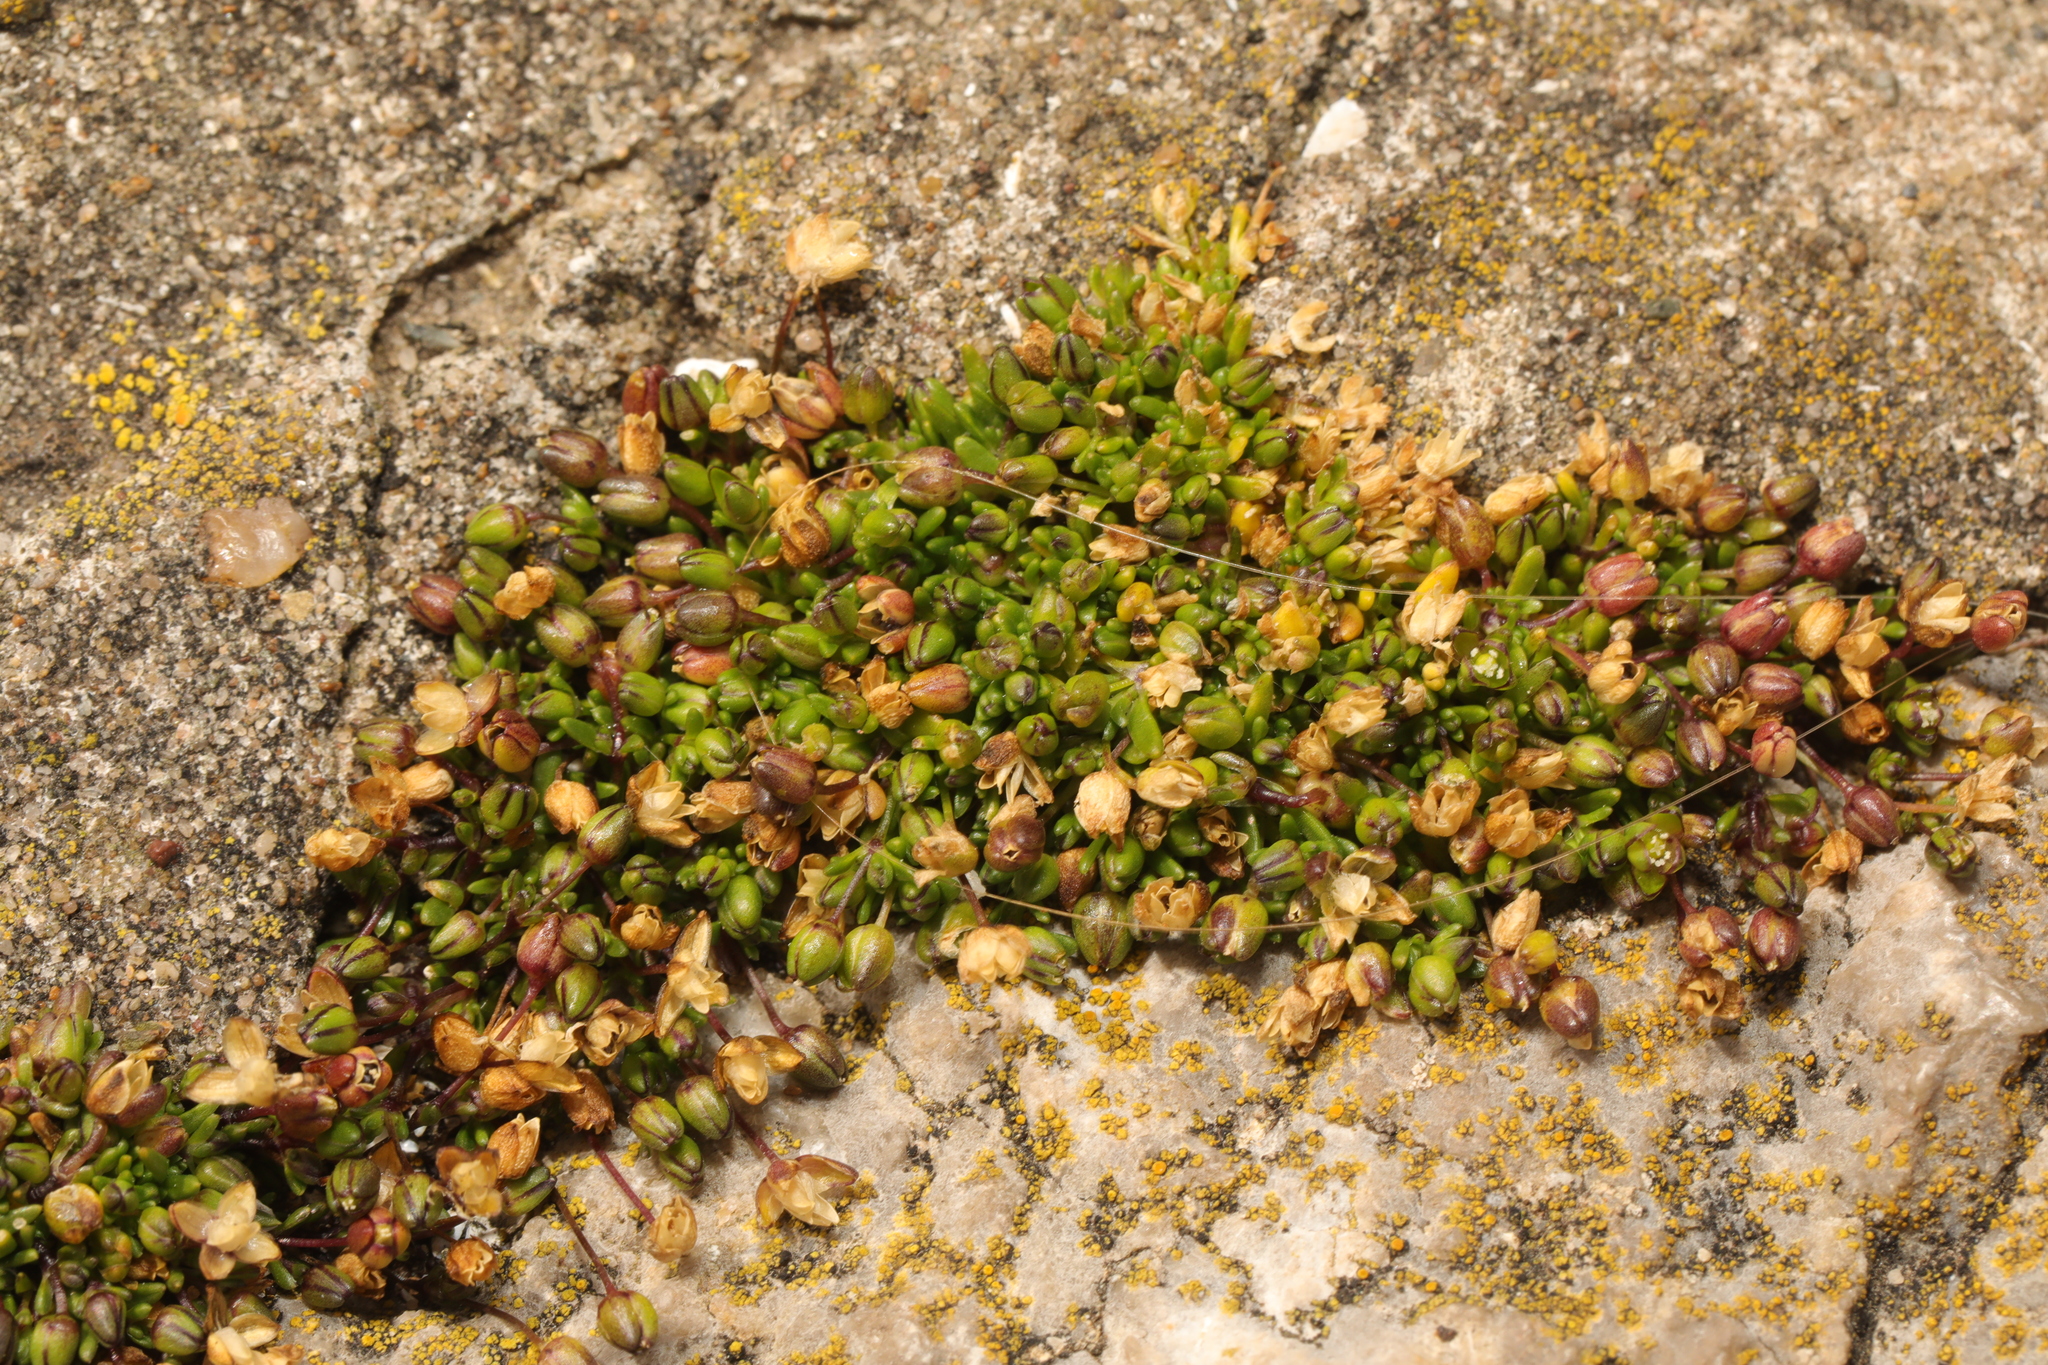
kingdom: Plantae
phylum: Tracheophyta
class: Magnoliopsida
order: Caryophyllales
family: Caryophyllaceae
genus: Sagina
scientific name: Sagina procumbens
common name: Procumbent pearlwort
